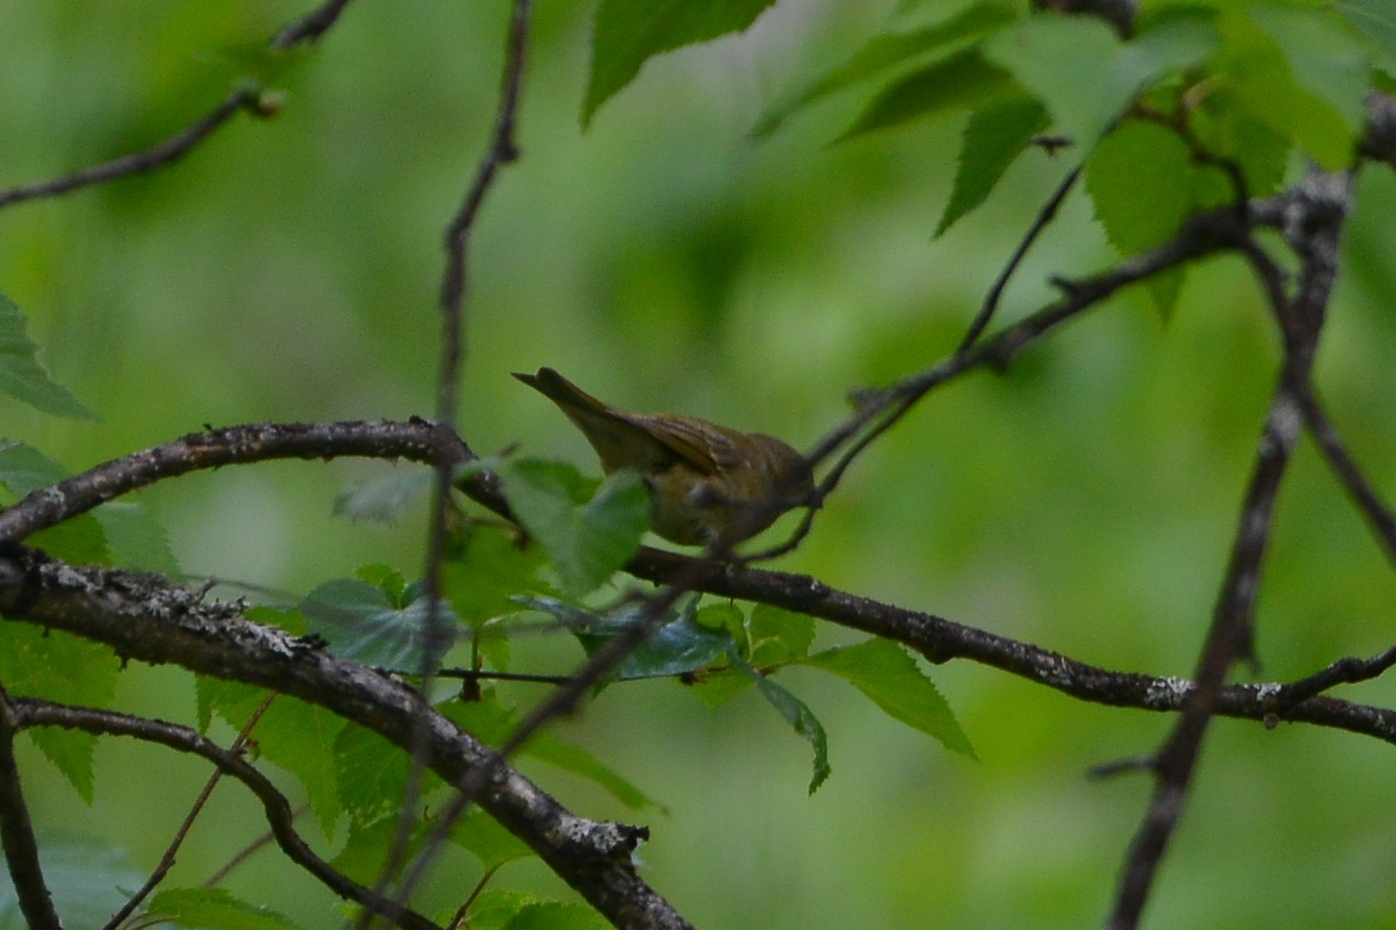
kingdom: Animalia
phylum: Chordata
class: Aves
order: Passeriformes
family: Fringillidae
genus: Carpodacus
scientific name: Carpodacus erythrinus
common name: Common rosefinch
